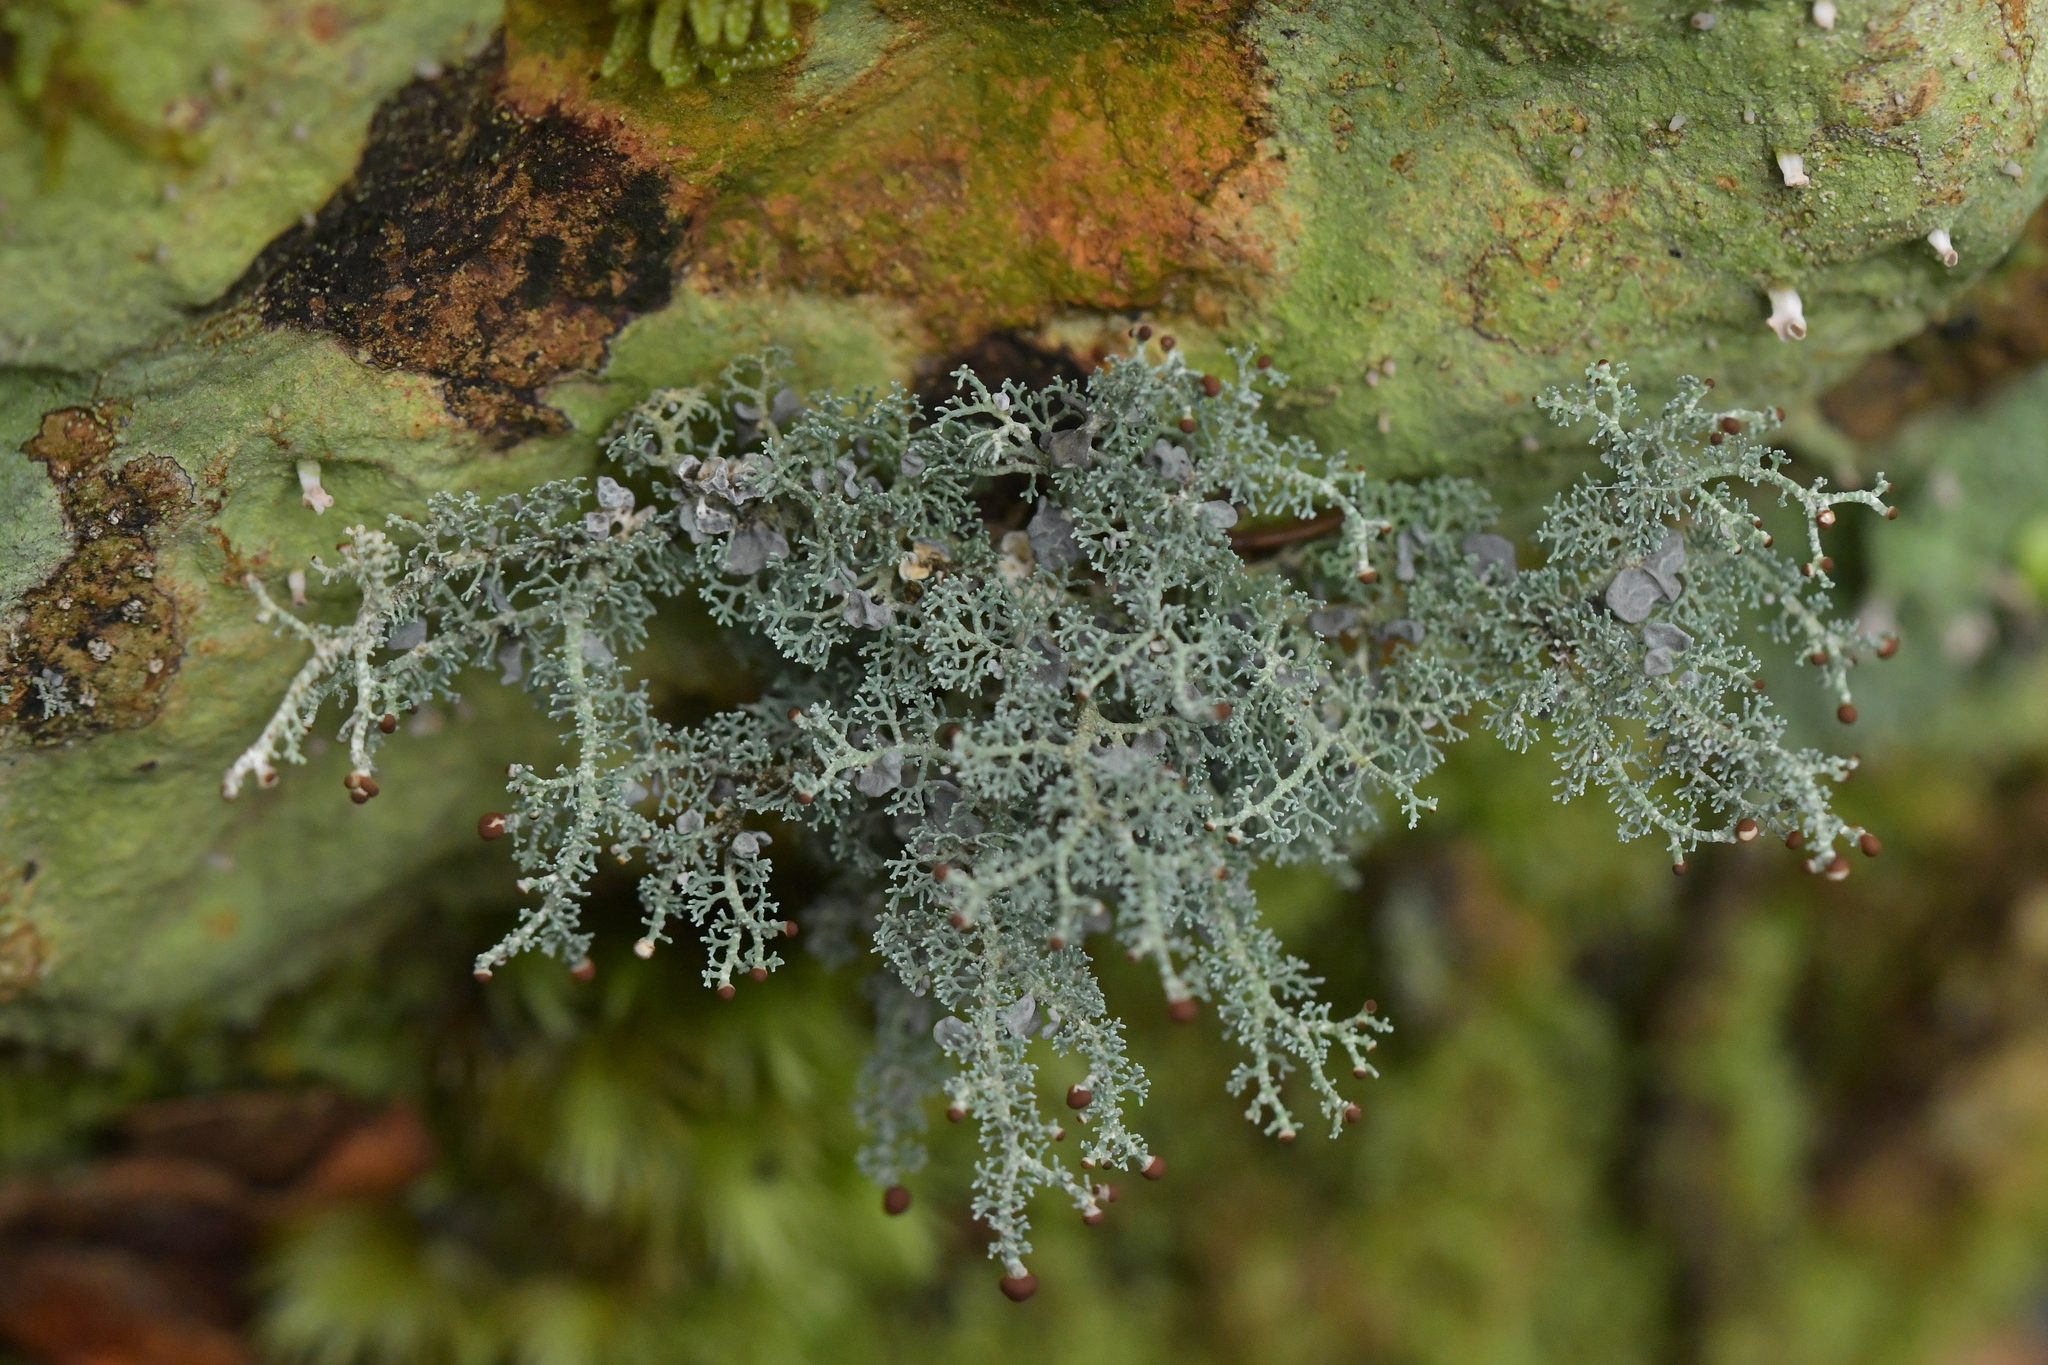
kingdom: Fungi
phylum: Ascomycota
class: Lecanoromycetes
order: Lecanorales
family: Stereocaulaceae
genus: Stereocaulon
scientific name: Stereocaulon ramulosum
